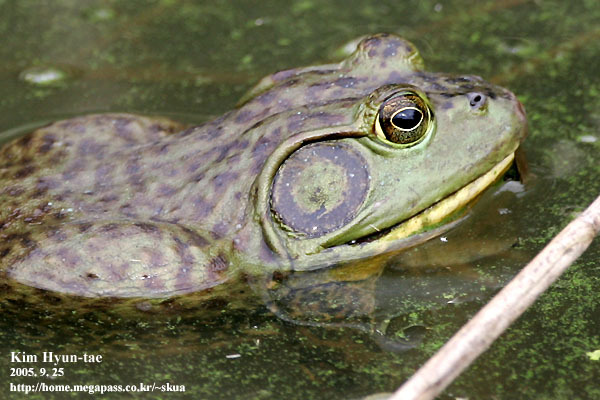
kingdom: Animalia
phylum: Chordata
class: Amphibia
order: Anura
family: Ranidae
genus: Lithobates
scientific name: Lithobates catesbeianus
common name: American bullfrog
